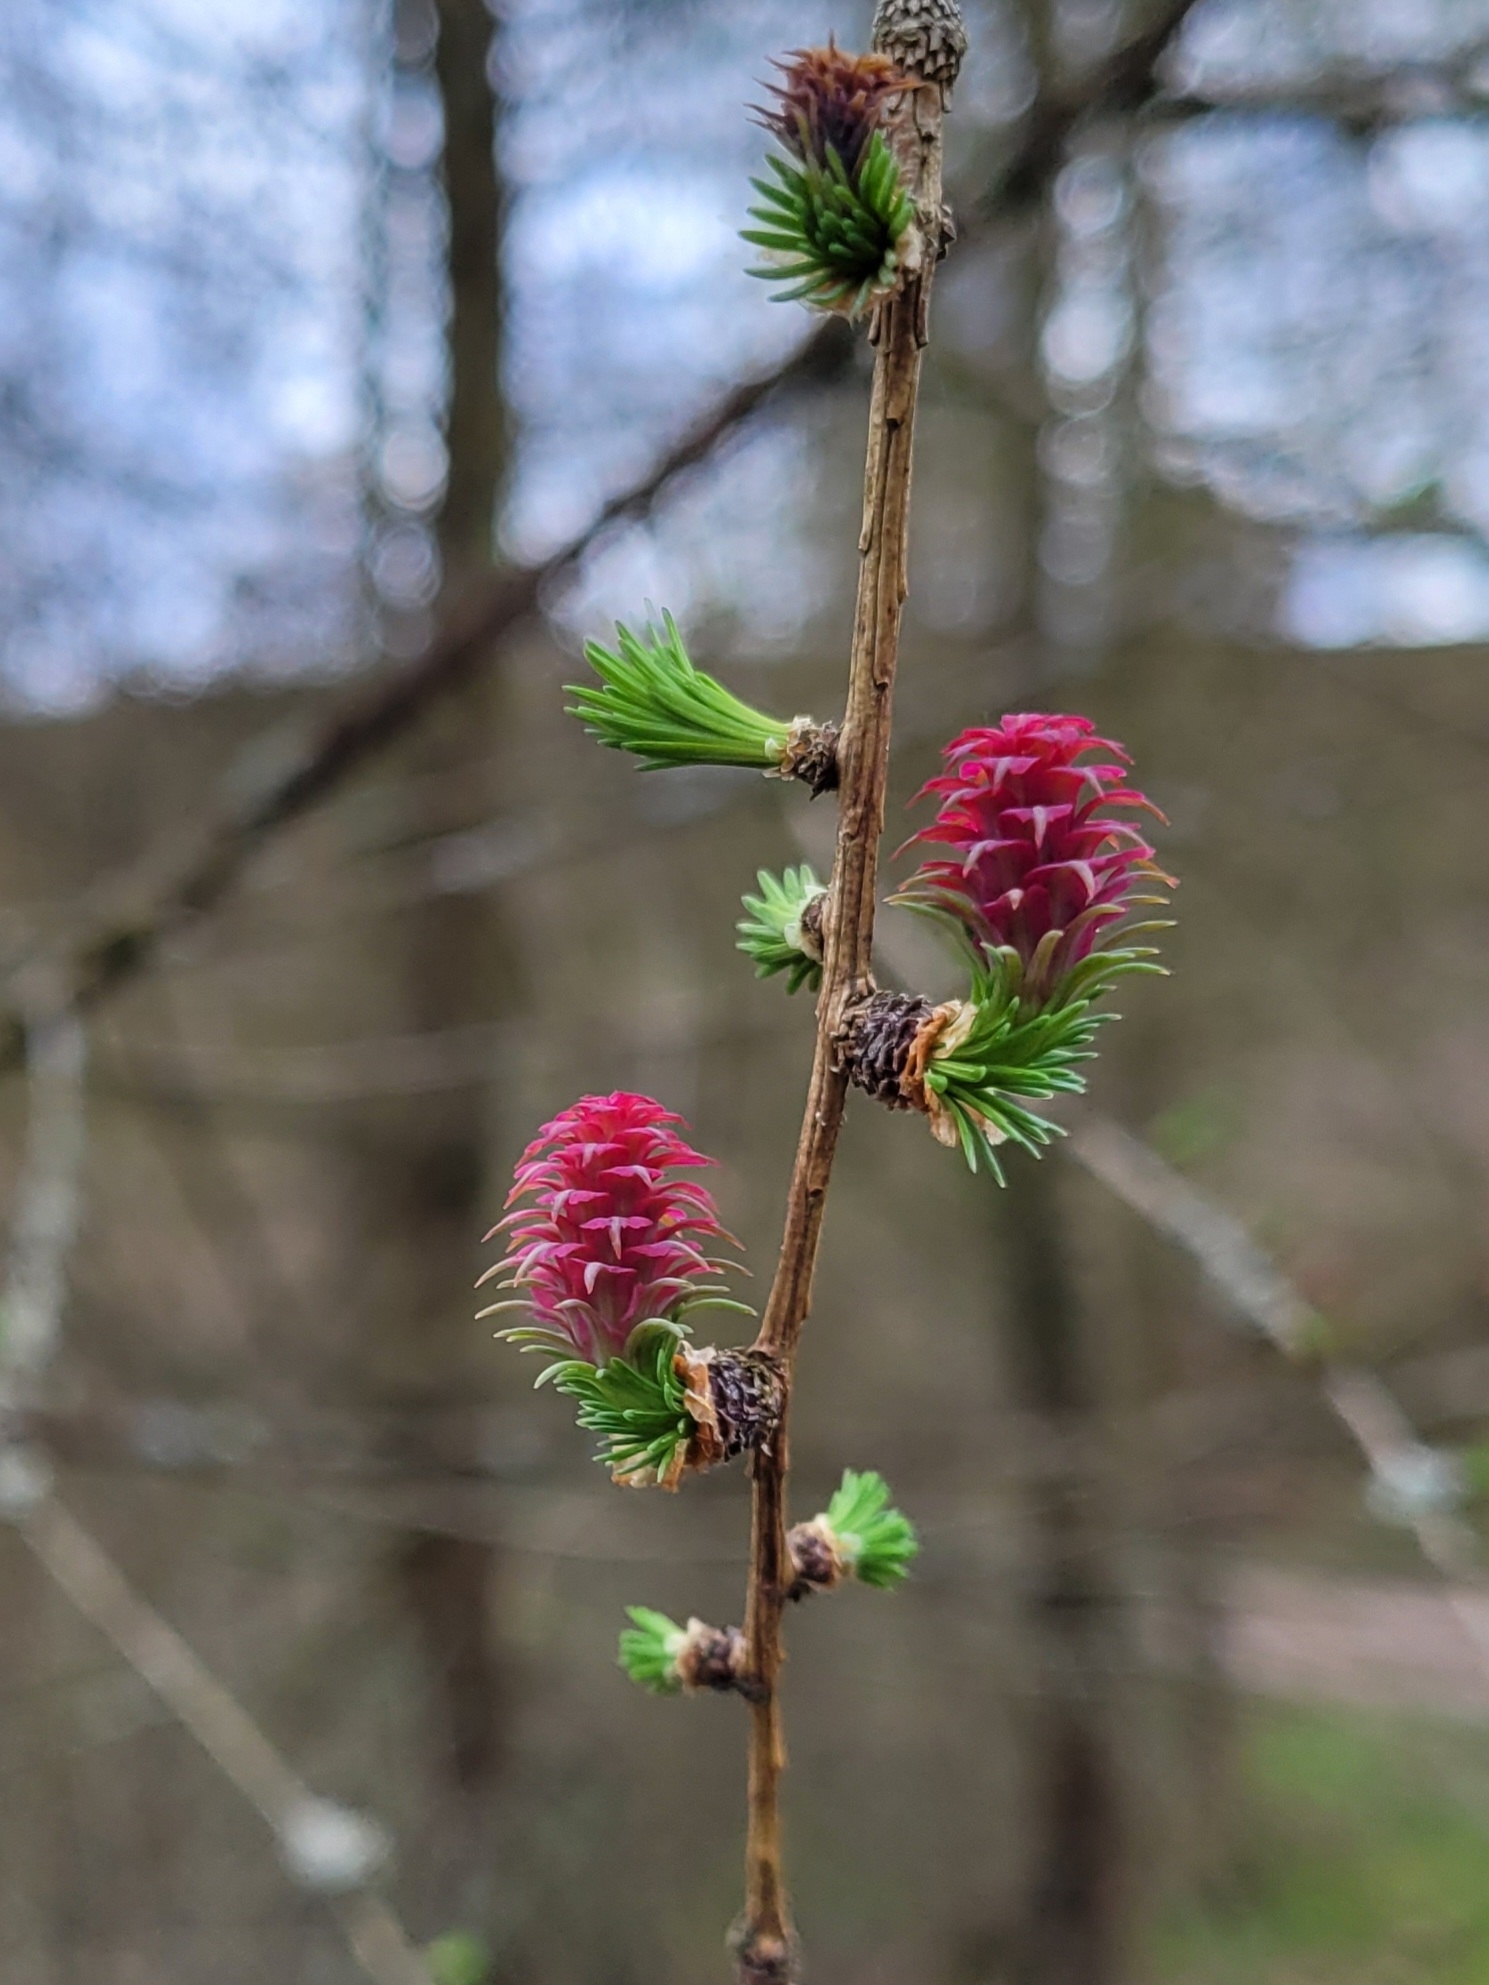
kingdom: Plantae
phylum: Tracheophyta
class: Pinopsida
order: Pinales
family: Pinaceae
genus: Larix
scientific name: Larix decidua
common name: European larch
